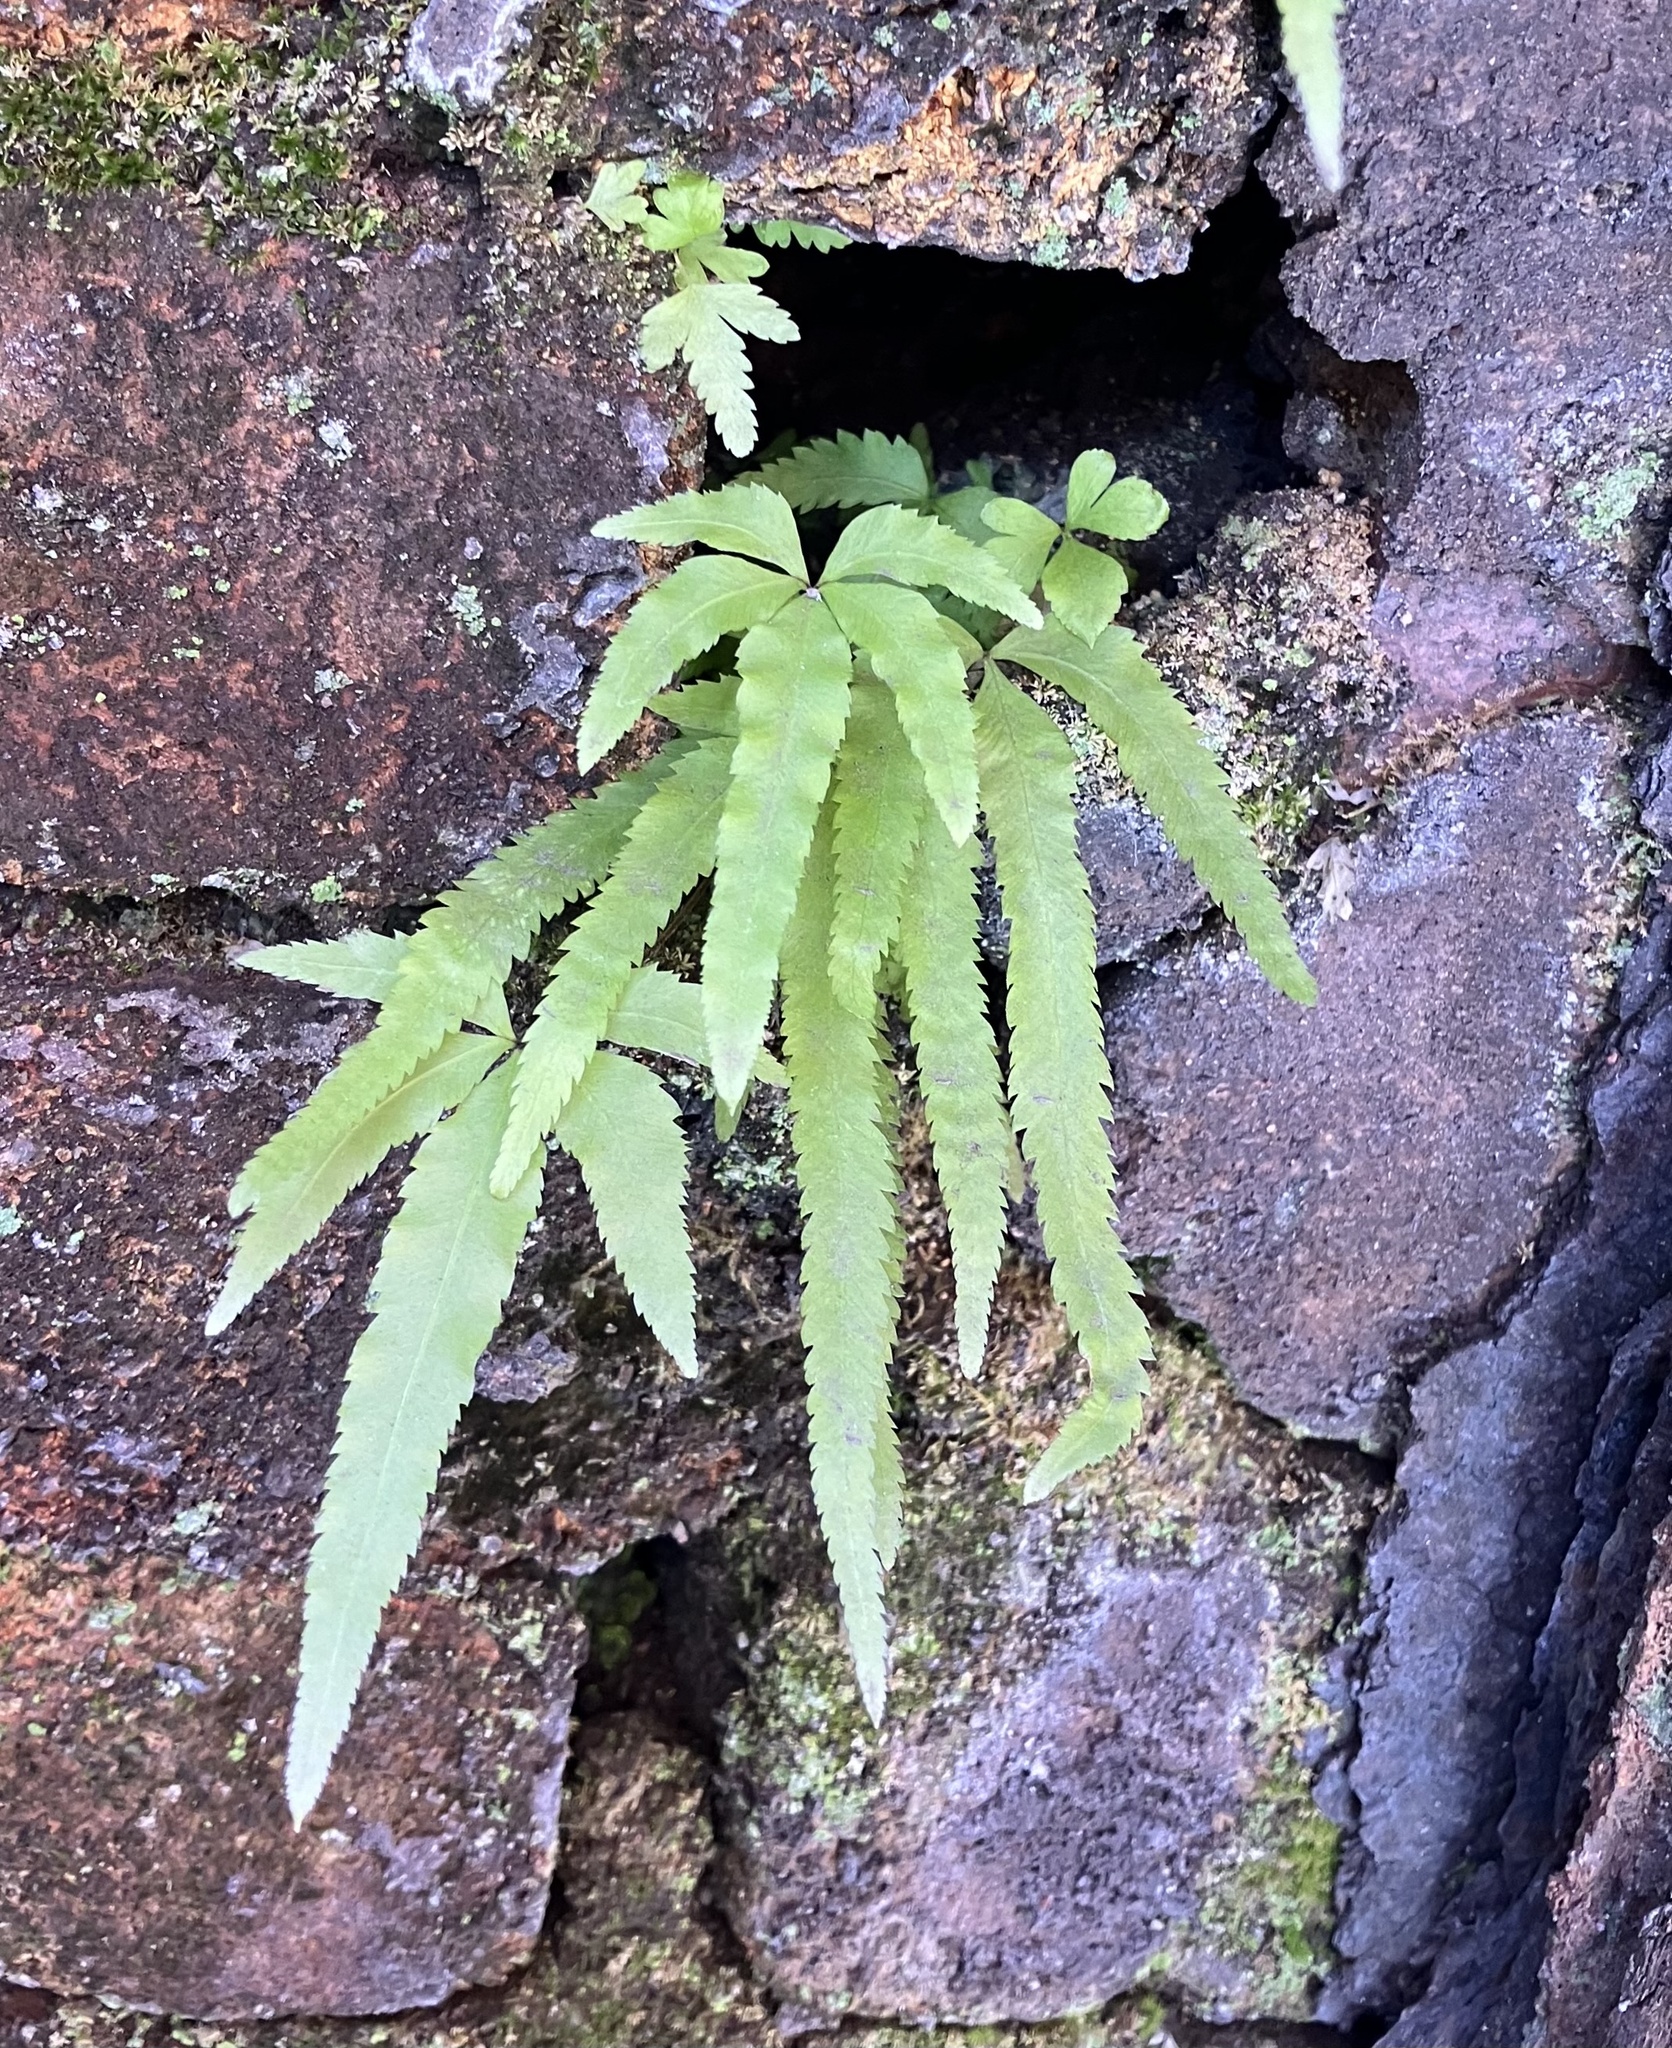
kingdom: Plantae
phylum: Tracheophyta
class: Polypodiopsida
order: Polypodiales
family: Pteridaceae
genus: Pteris
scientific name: Pteris multifida
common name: Spider brake
